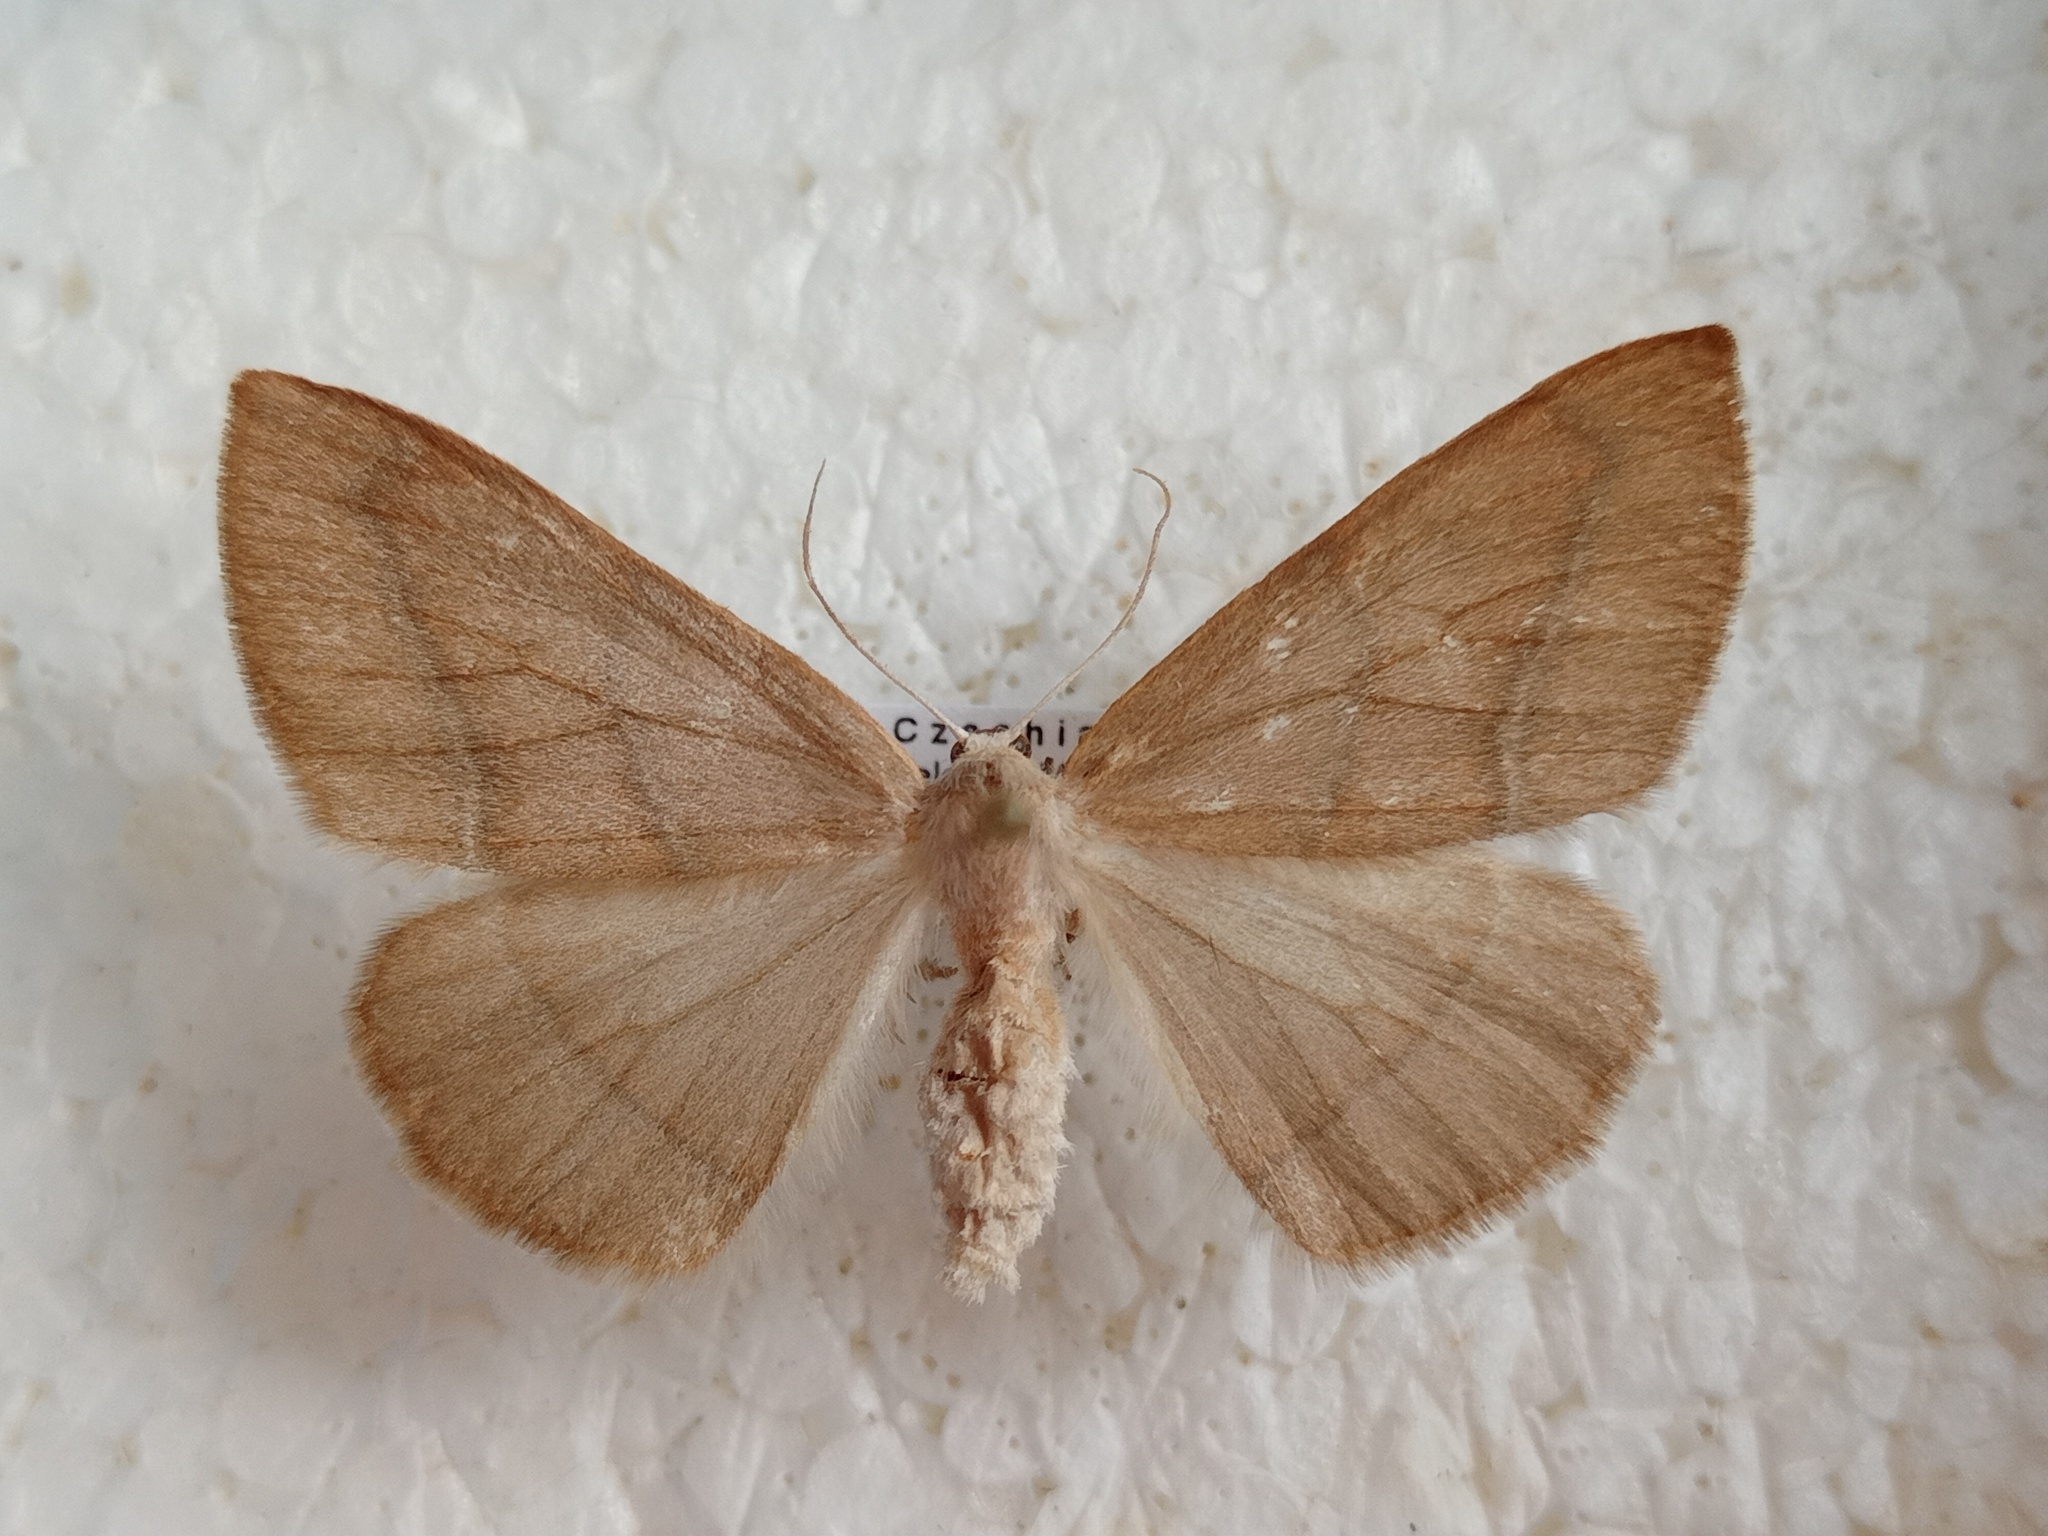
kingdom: Animalia
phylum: Arthropoda
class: Insecta
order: Lepidoptera
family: Geometridae
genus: Hylaea
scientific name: Hylaea fasciaria
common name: Barred red
